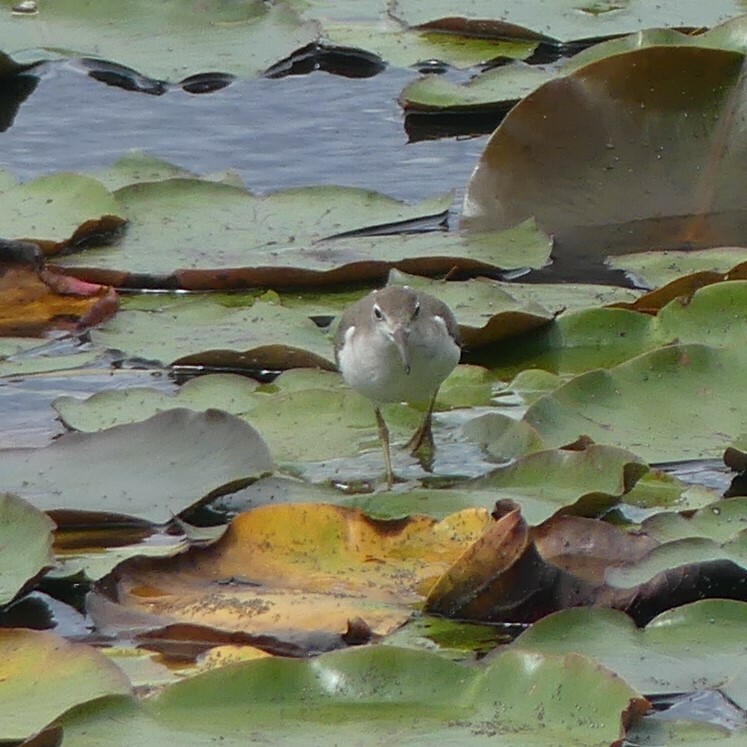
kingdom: Animalia
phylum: Chordata
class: Aves
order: Charadriiformes
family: Scolopacidae
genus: Actitis
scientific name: Actitis macularius
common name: Spotted sandpiper
